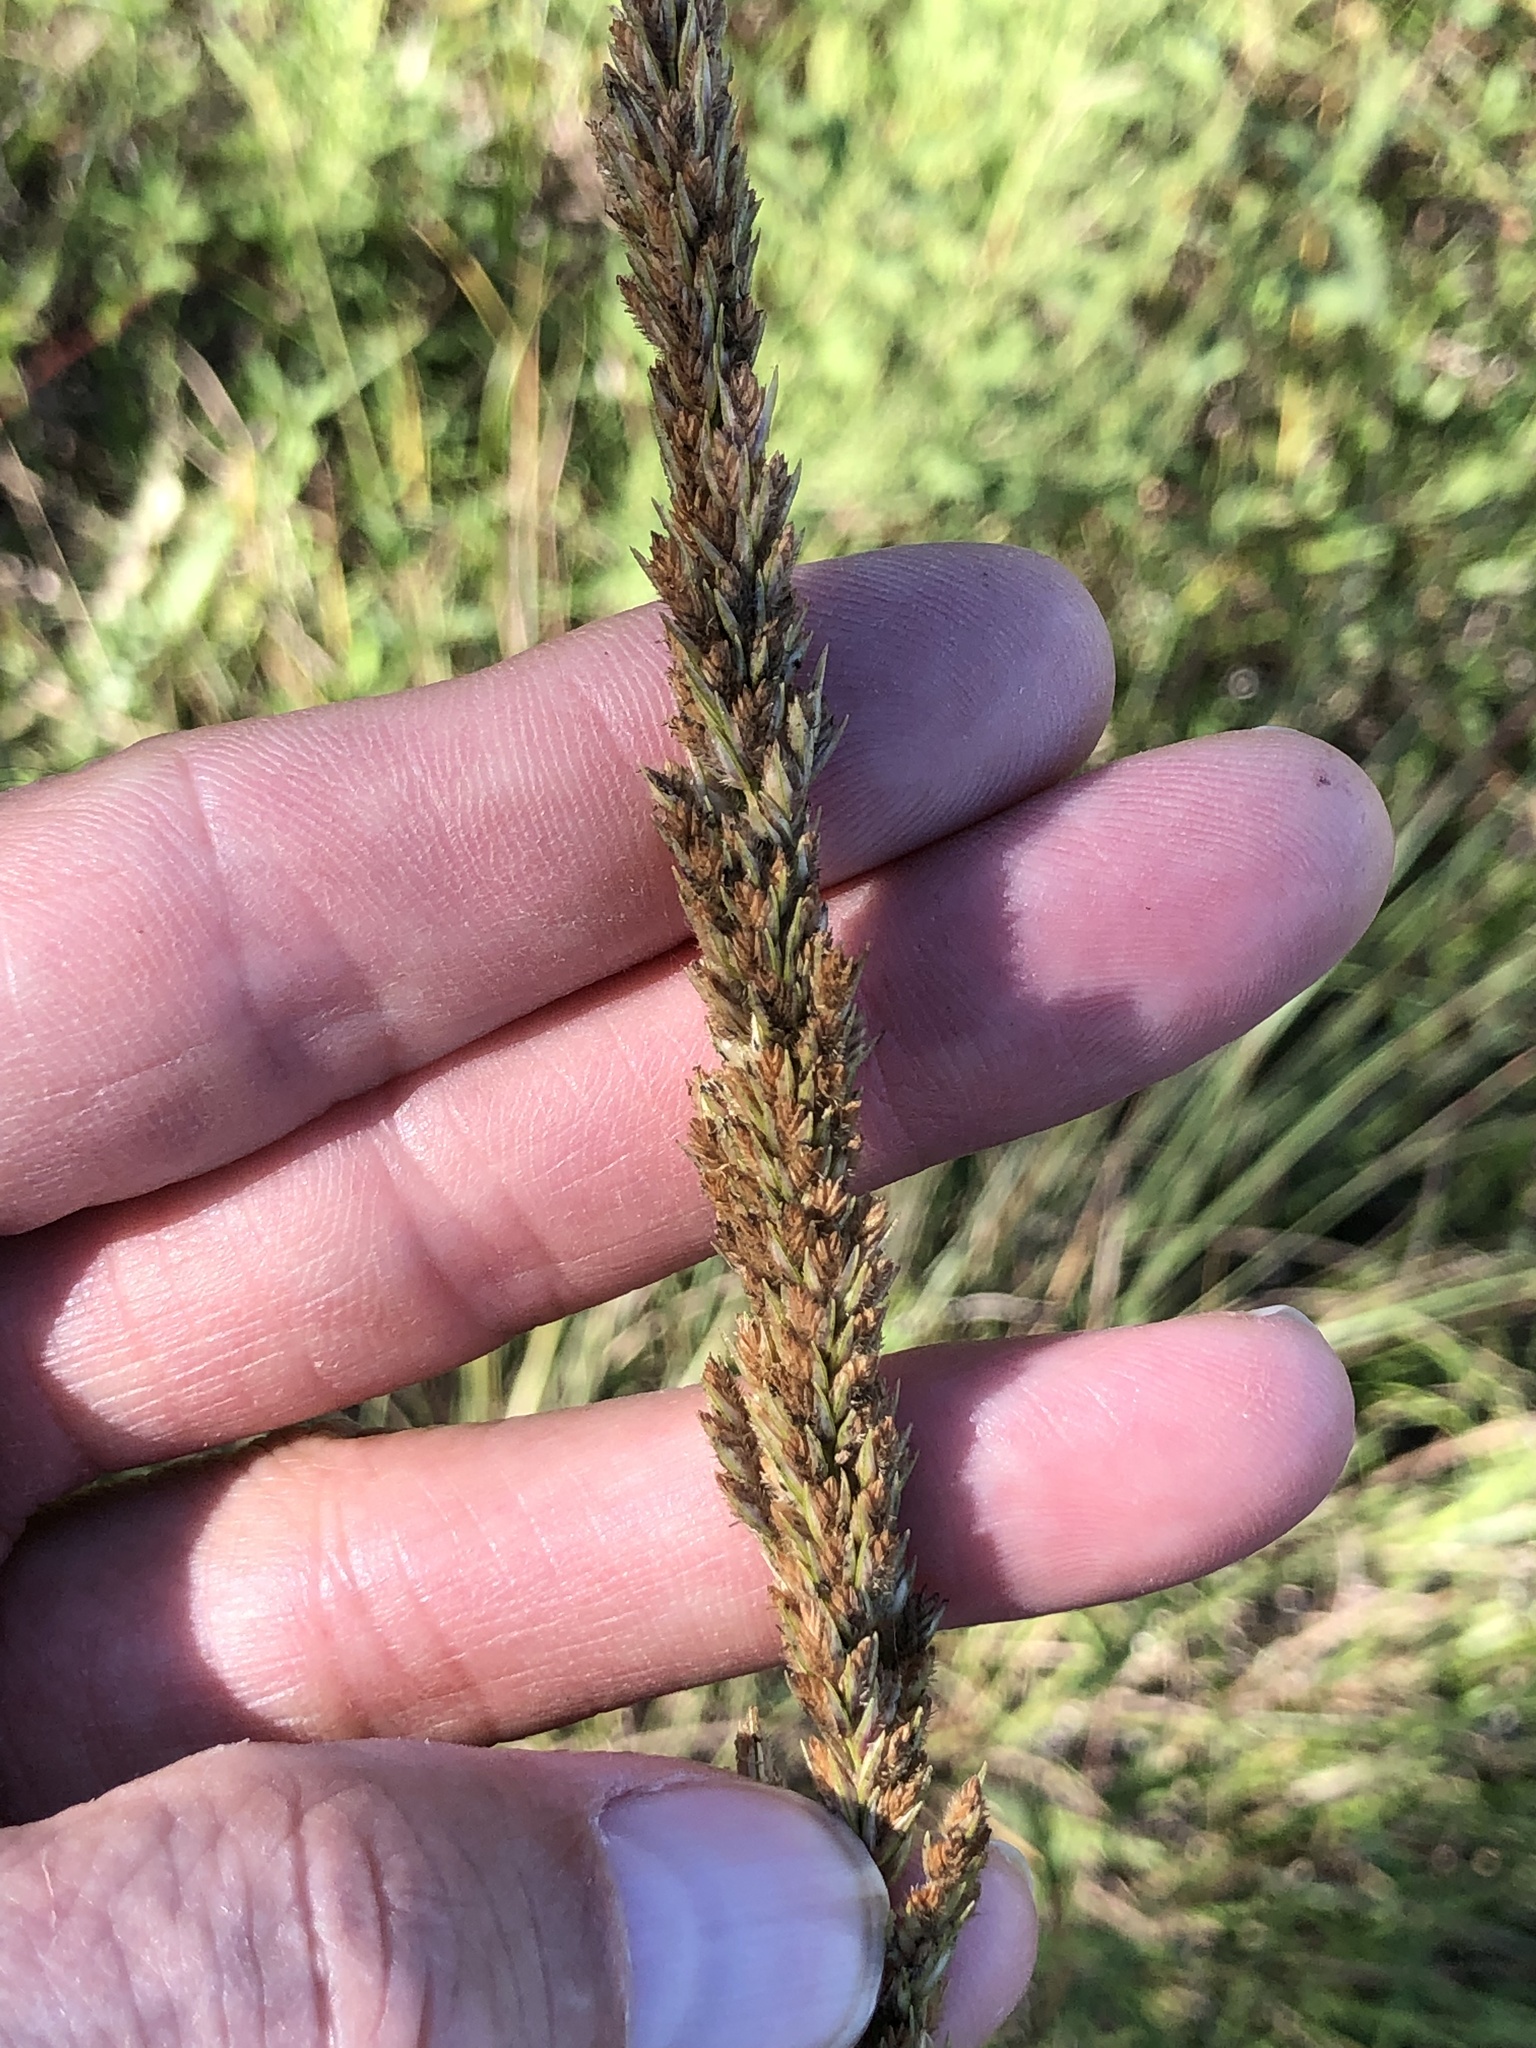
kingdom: Plantae
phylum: Tracheophyta
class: Liliopsida
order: Poales
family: Poaceae
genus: Tridens
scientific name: Tridens strictus
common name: Long-spike tridens
